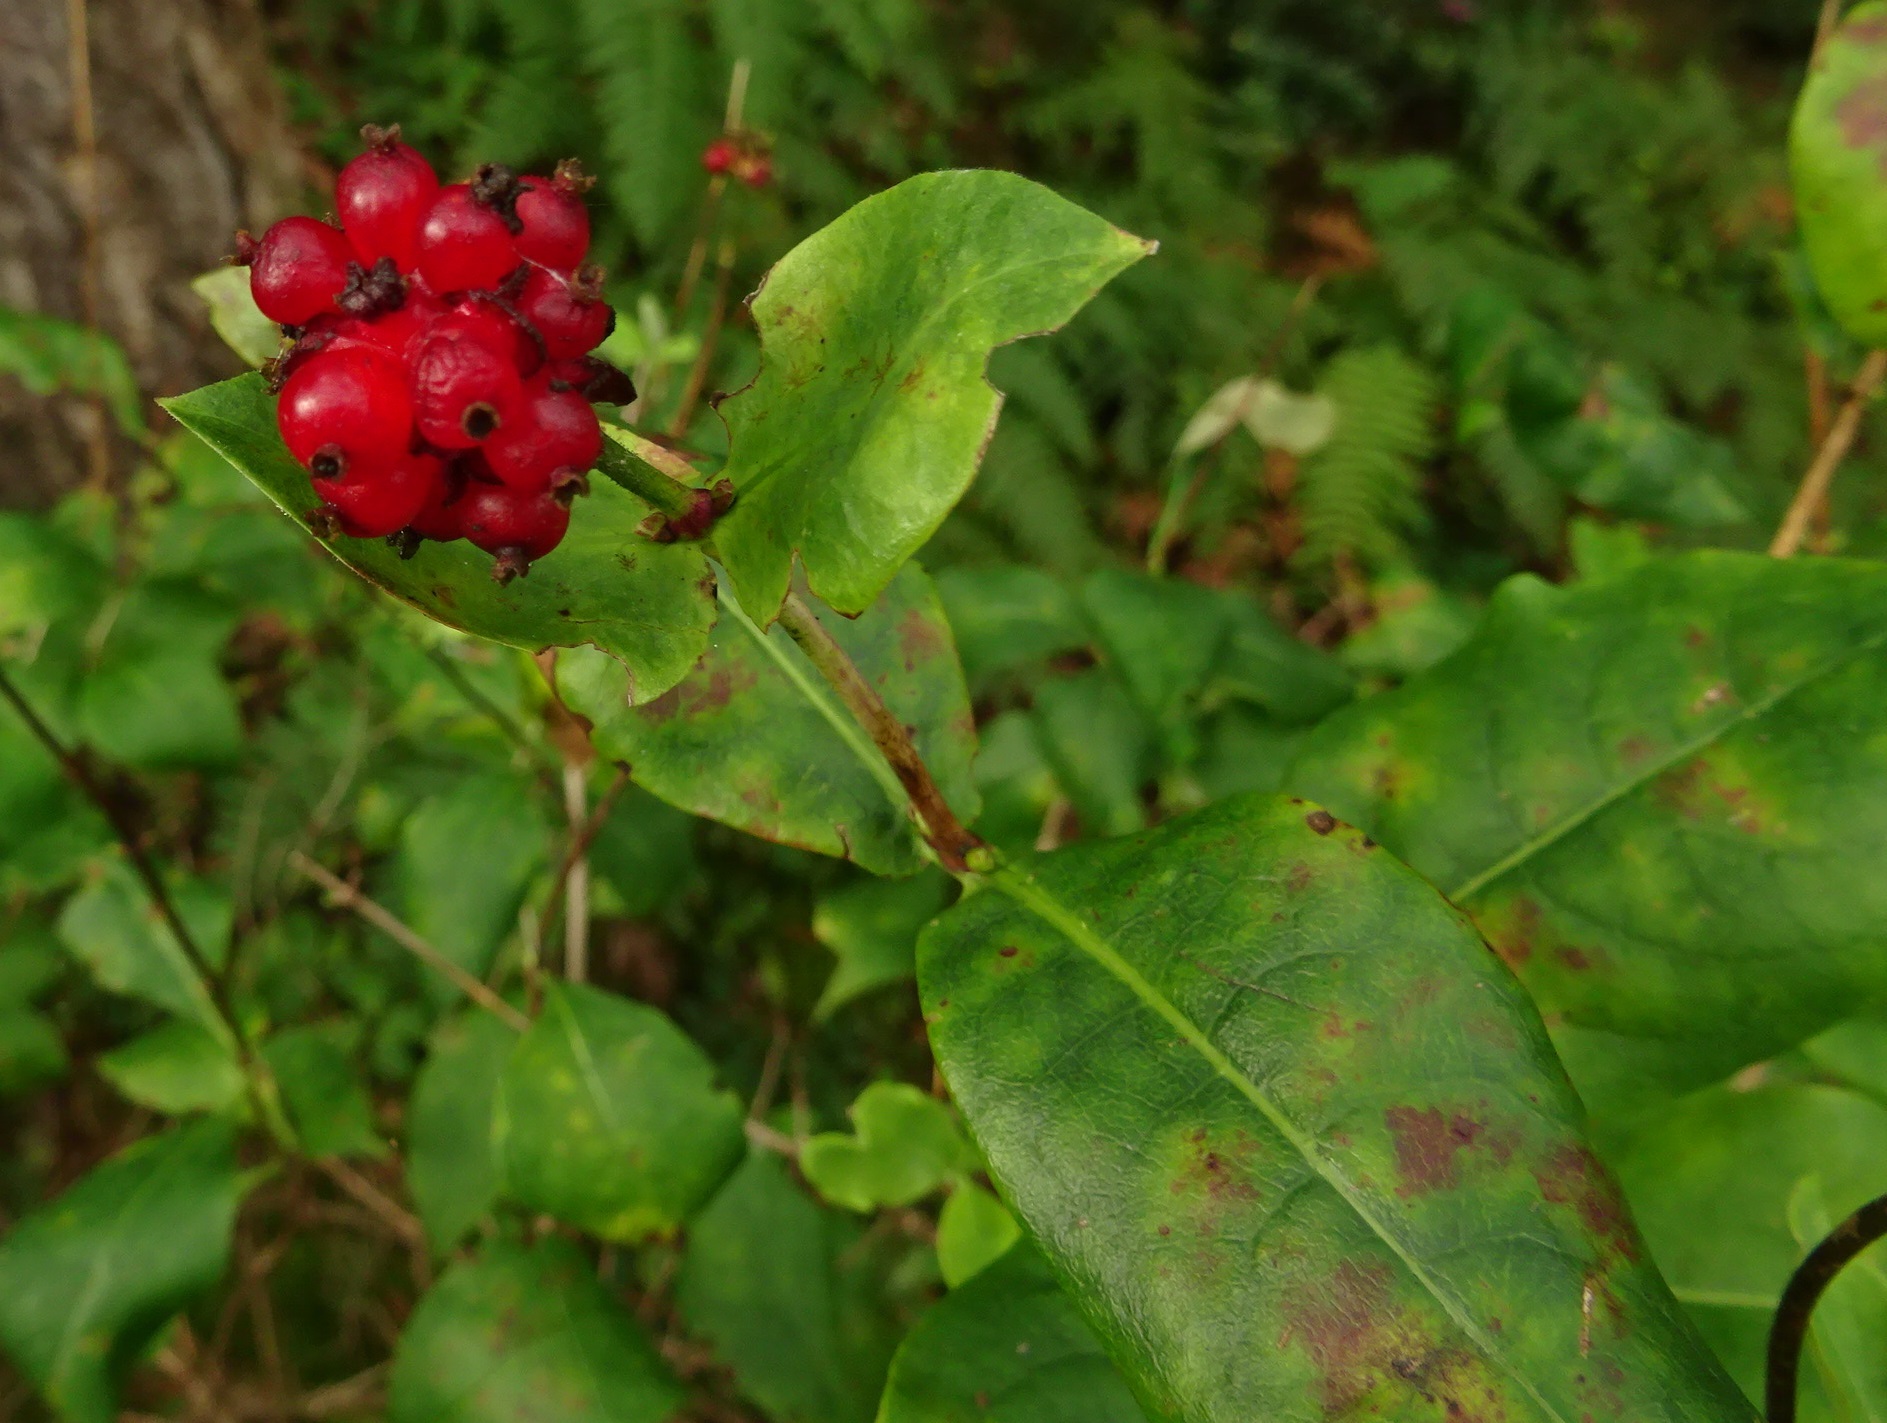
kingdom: Plantae
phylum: Tracheophyta
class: Magnoliopsida
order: Dipsacales
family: Caprifoliaceae
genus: Lonicera
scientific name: Lonicera periclymenum
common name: European honeysuckle
